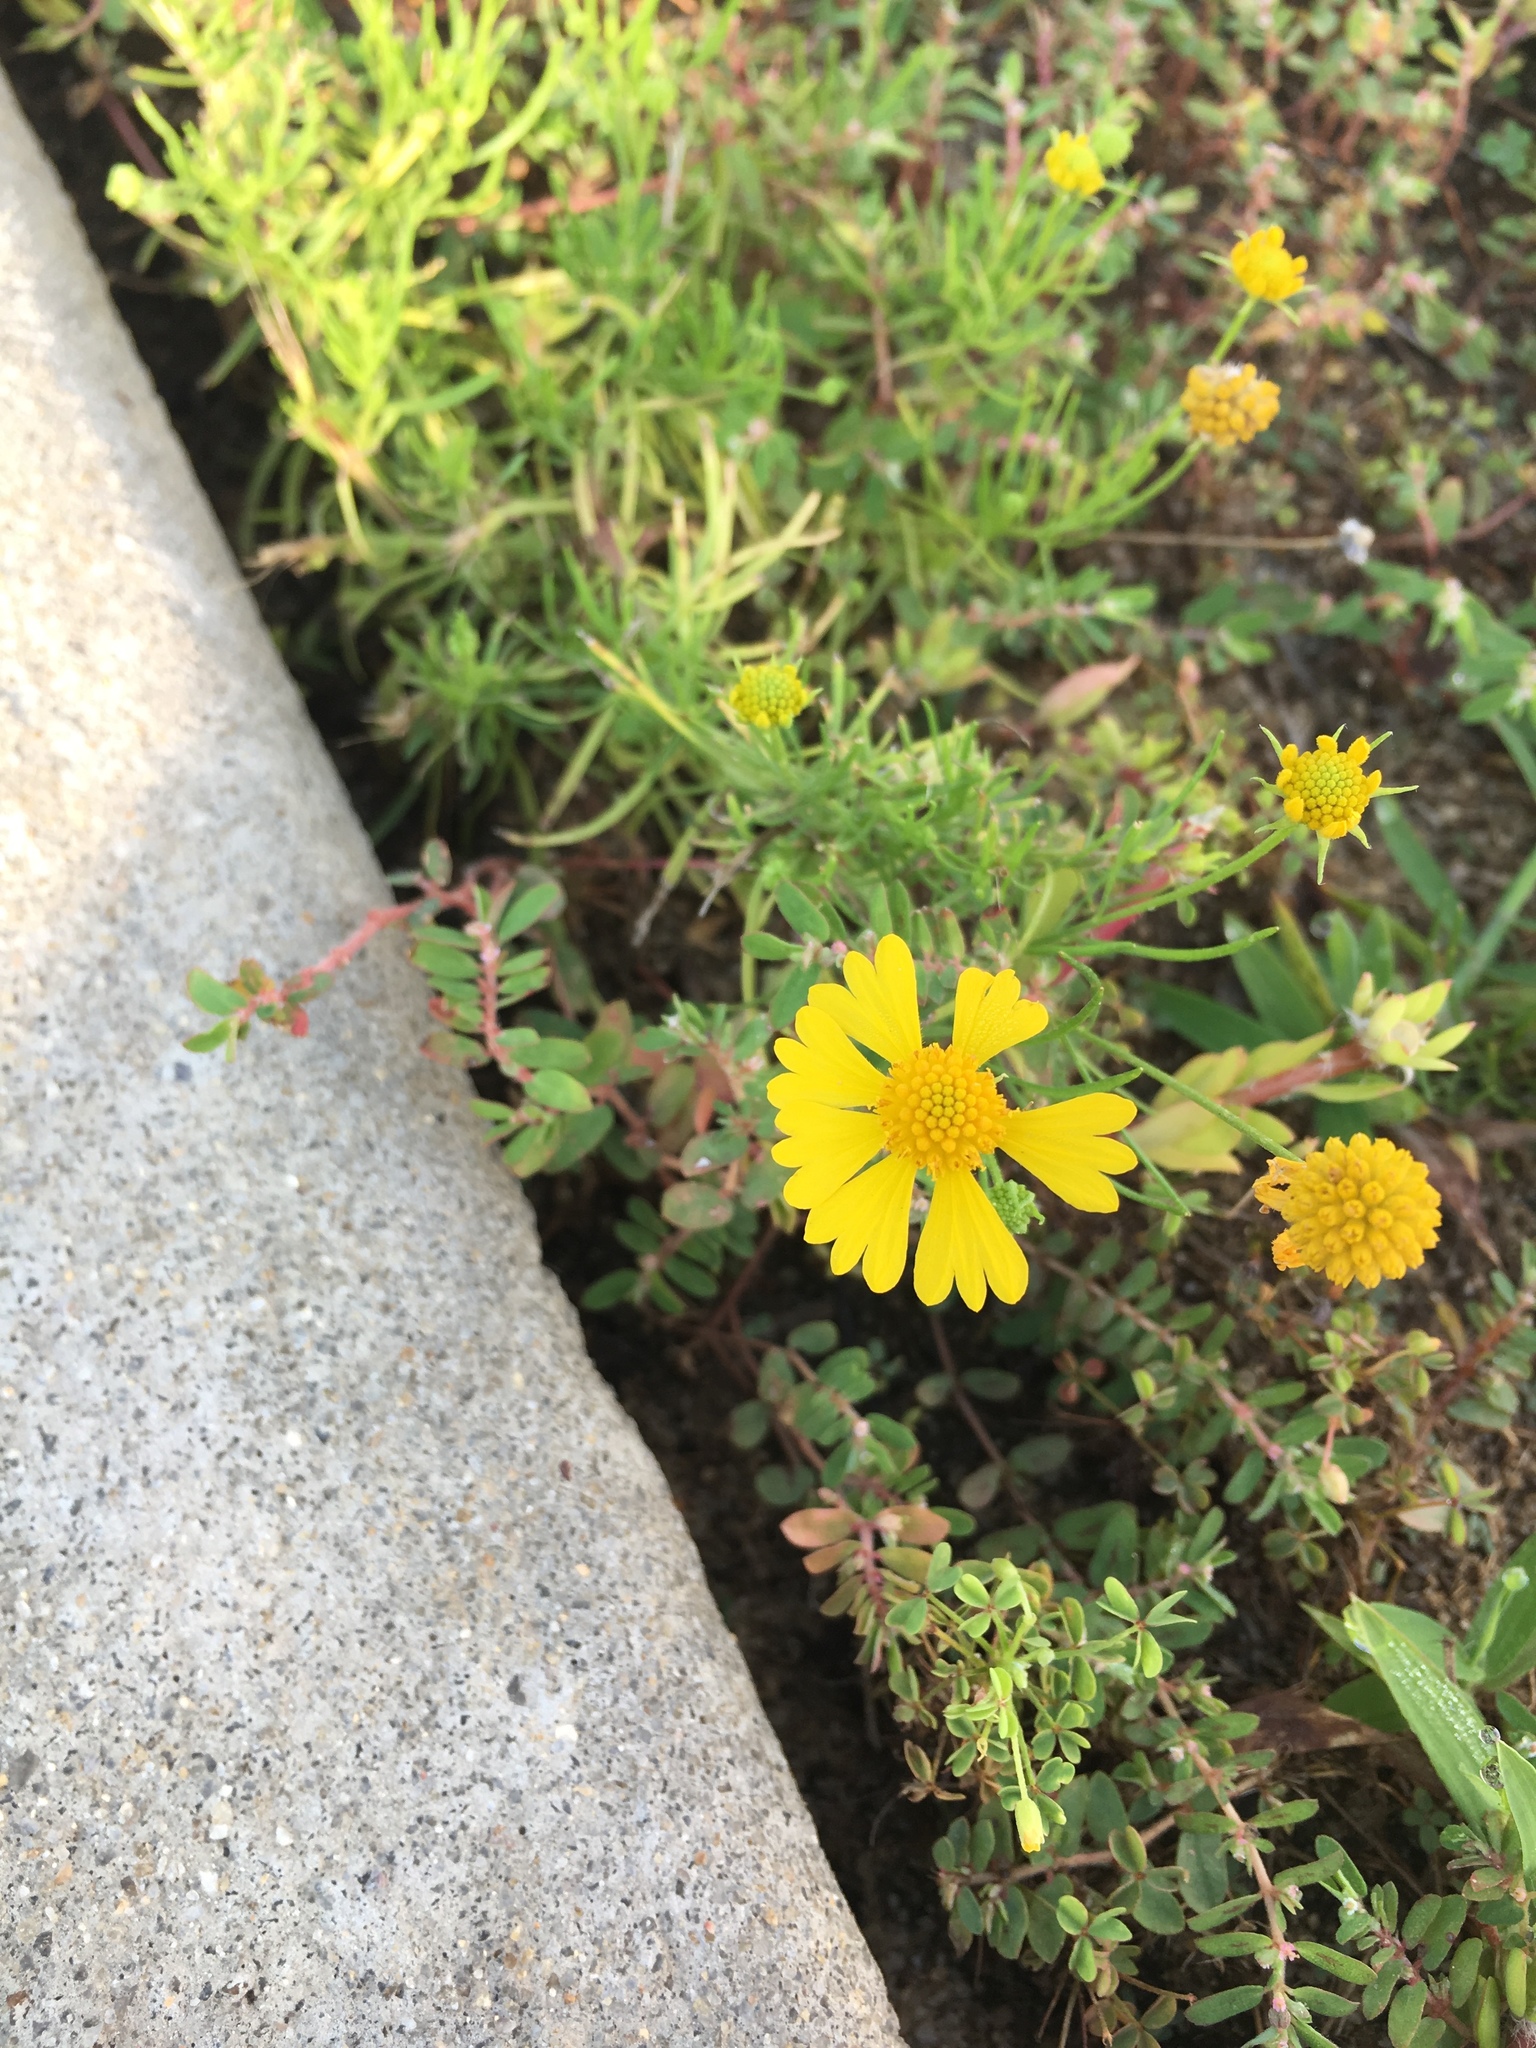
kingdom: Plantae
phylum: Tracheophyta
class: Magnoliopsida
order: Asterales
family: Asteraceae
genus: Helenium
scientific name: Helenium amarum
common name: Bitter sneezeweed
